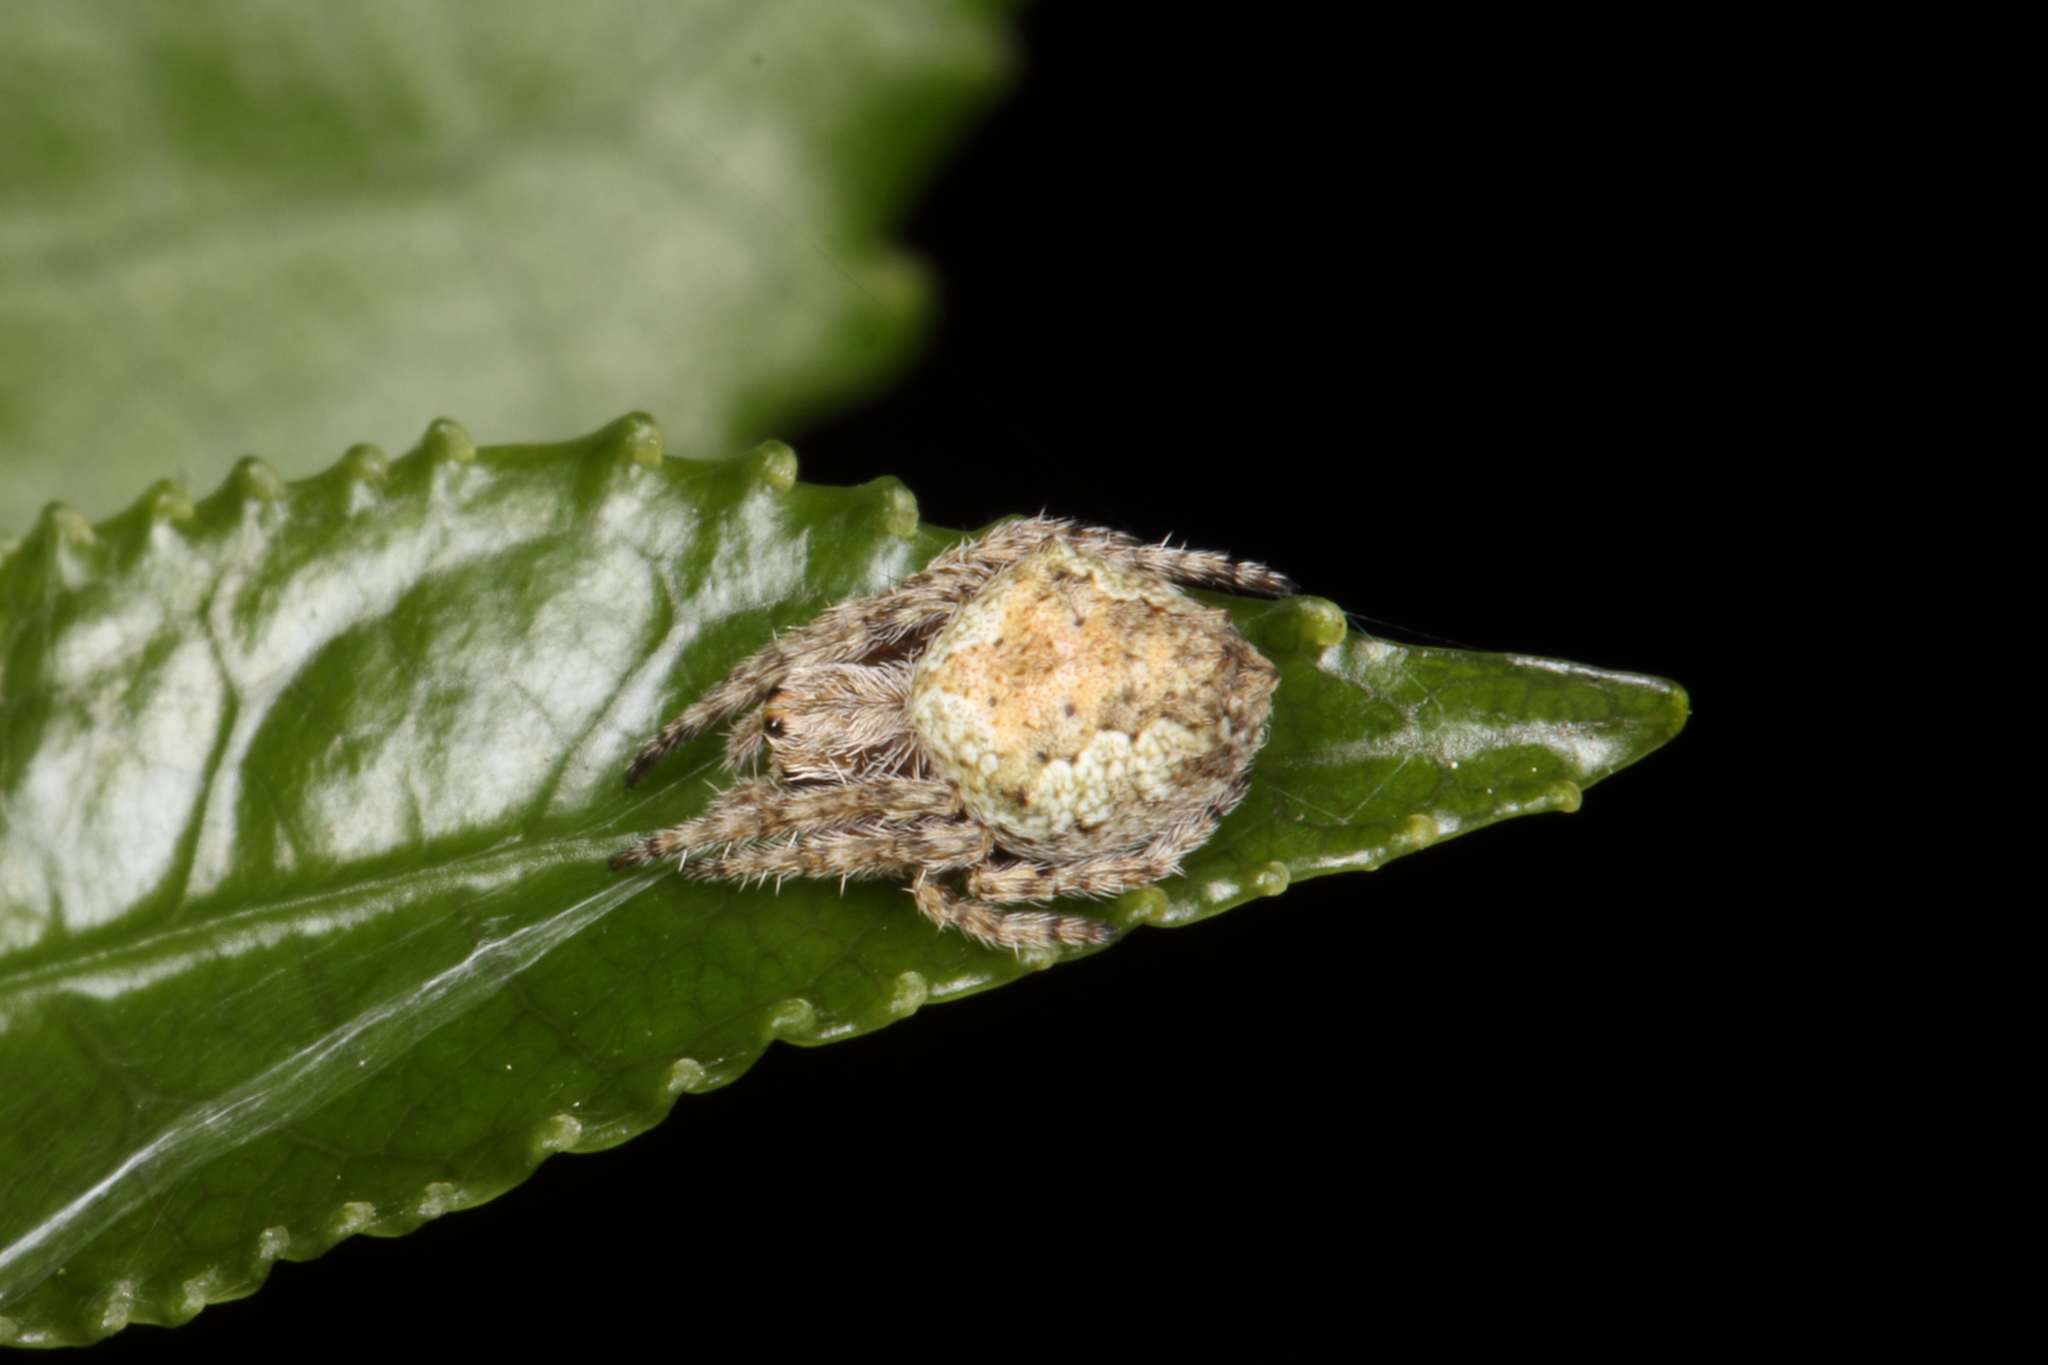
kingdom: Animalia
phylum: Arthropoda
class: Arachnida
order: Araneae
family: Araneidae
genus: Eriophora
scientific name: Eriophora pustulosa
